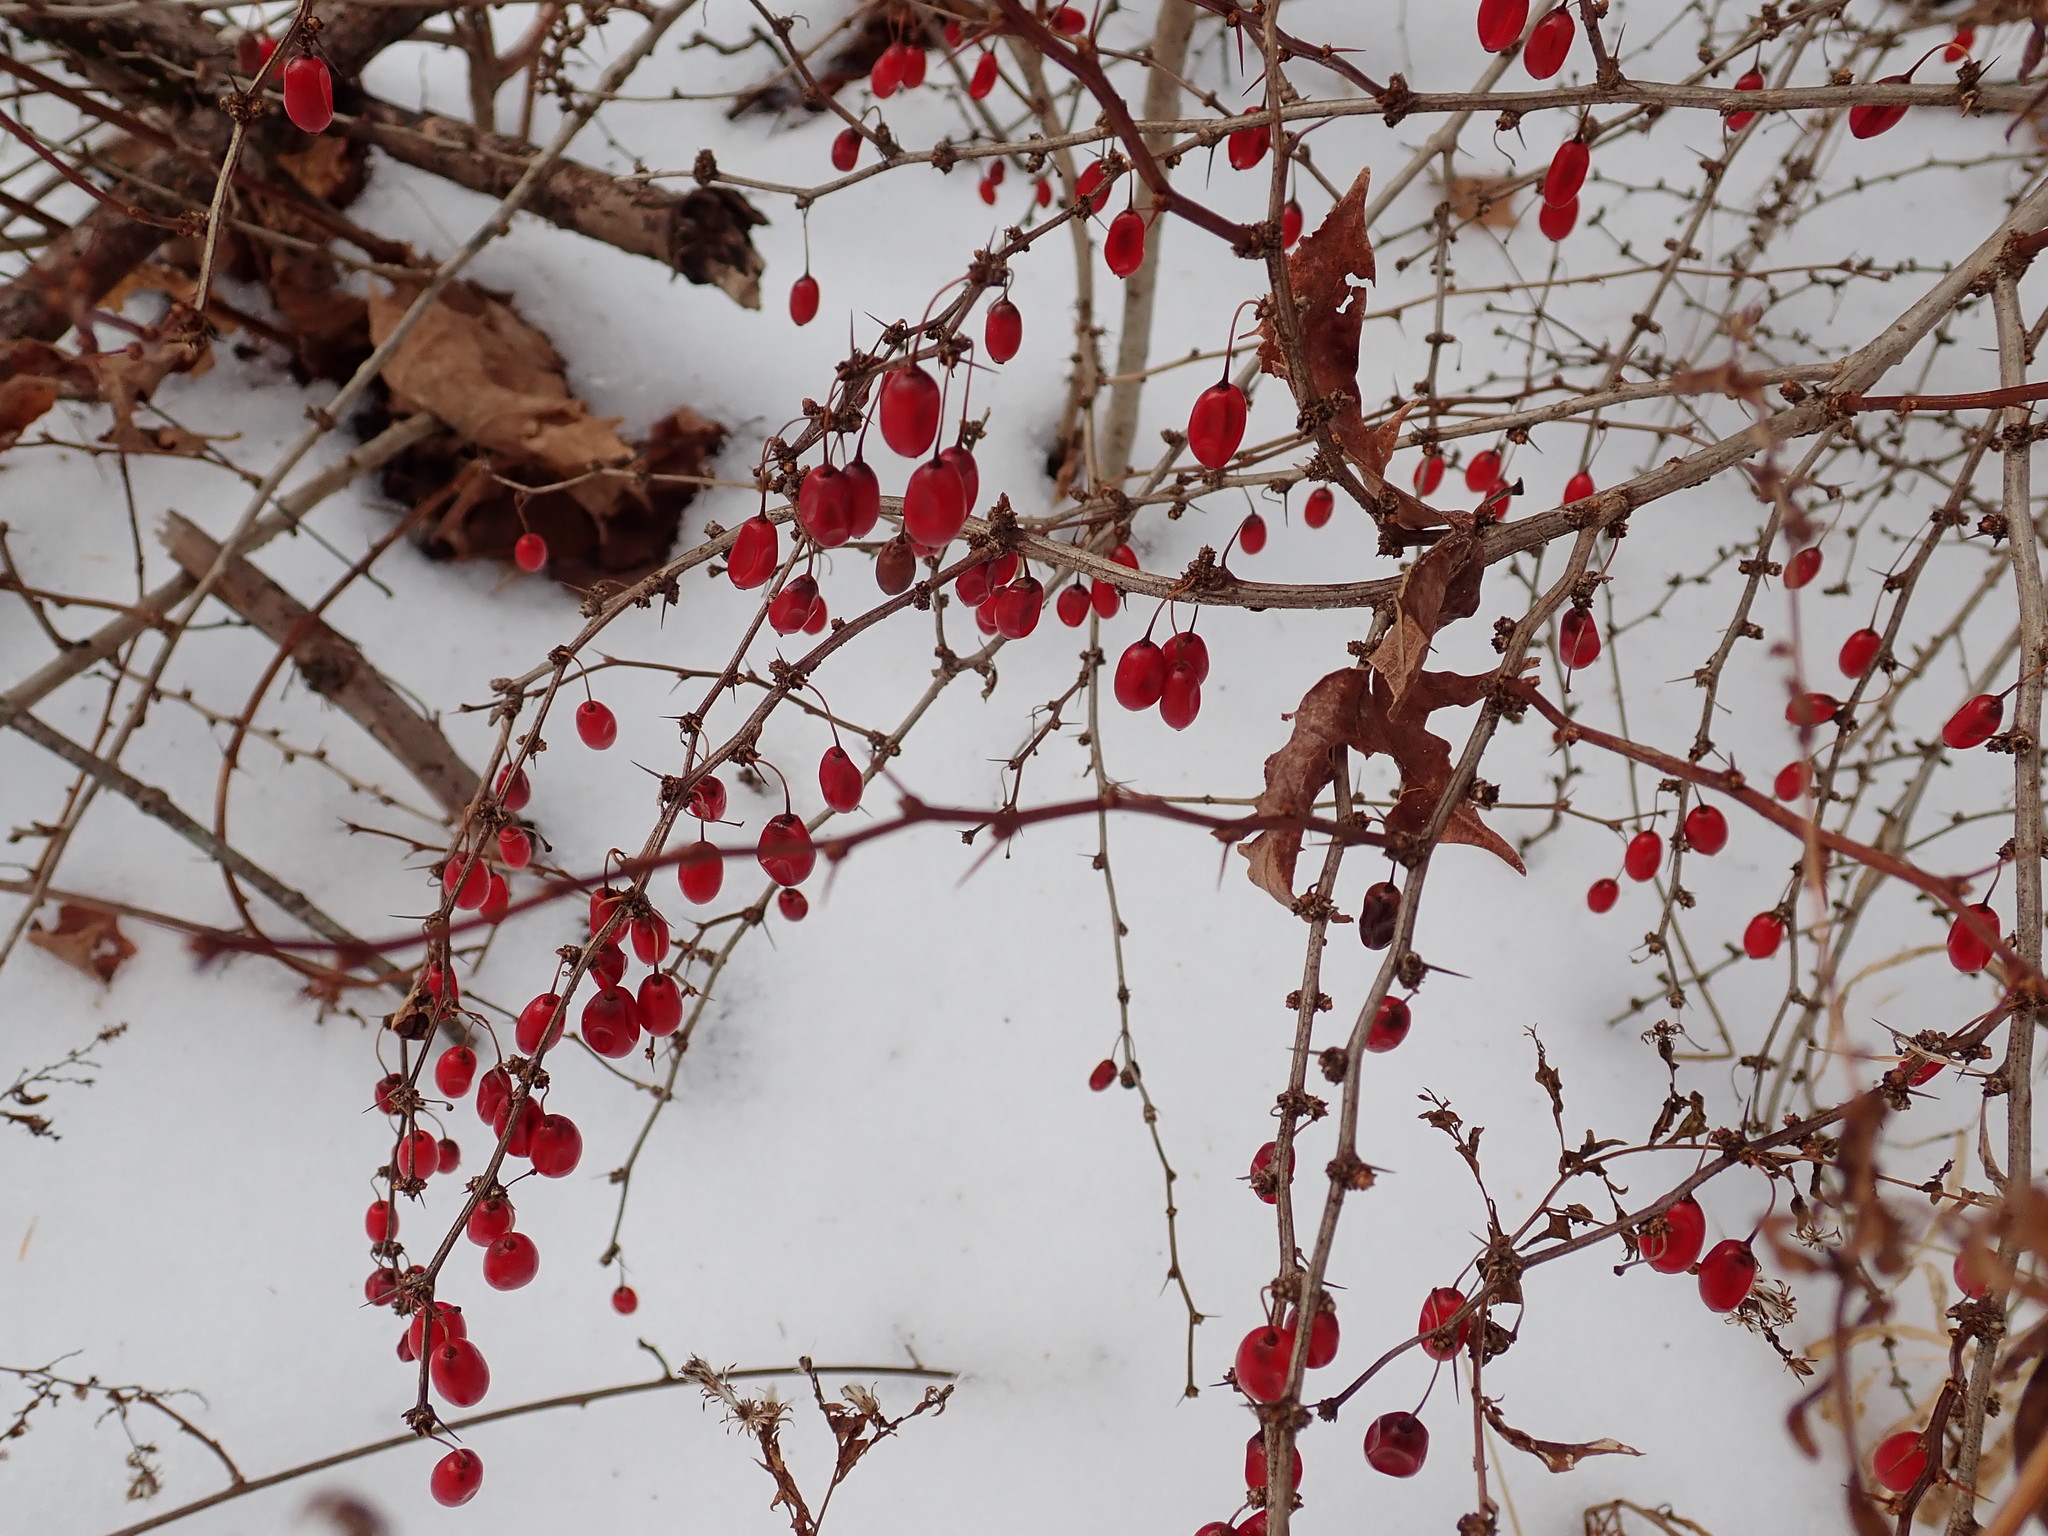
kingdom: Plantae
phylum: Tracheophyta
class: Magnoliopsida
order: Ranunculales
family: Berberidaceae
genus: Berberis
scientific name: Berberis thunbergii
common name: Japanese barberry
